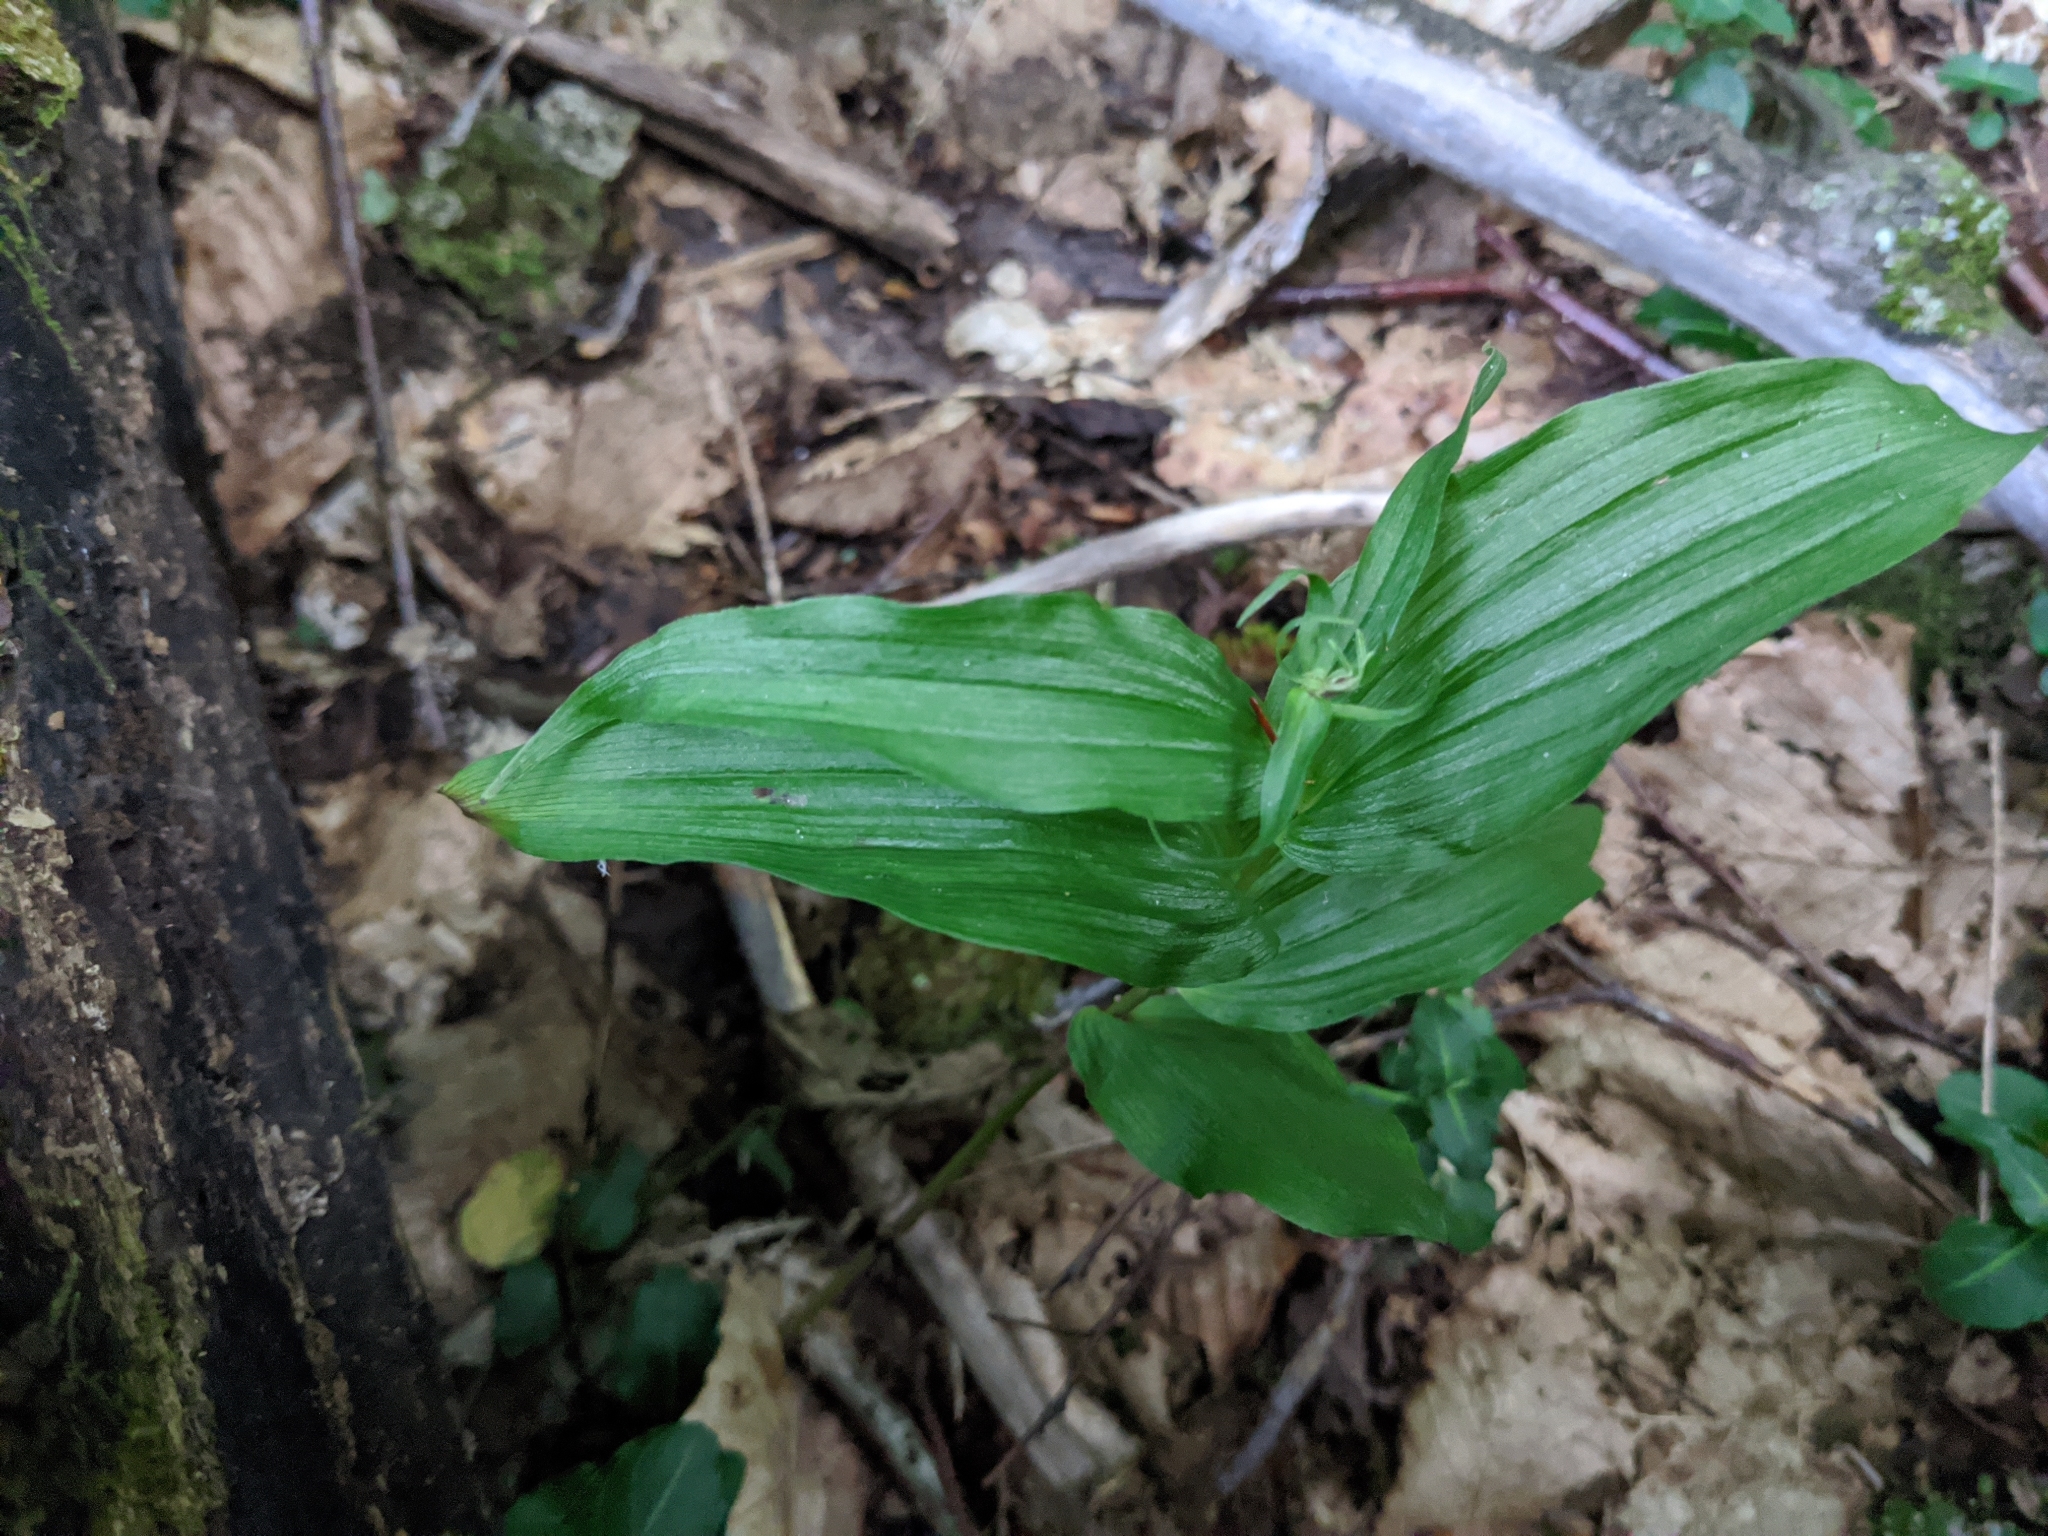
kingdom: Plantae
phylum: Tracheophyta
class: Liliopsida
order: Asparagales
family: Orchidaceae
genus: Epipactis
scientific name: Epipactis helleborine
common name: Broad-leaved helleborine
